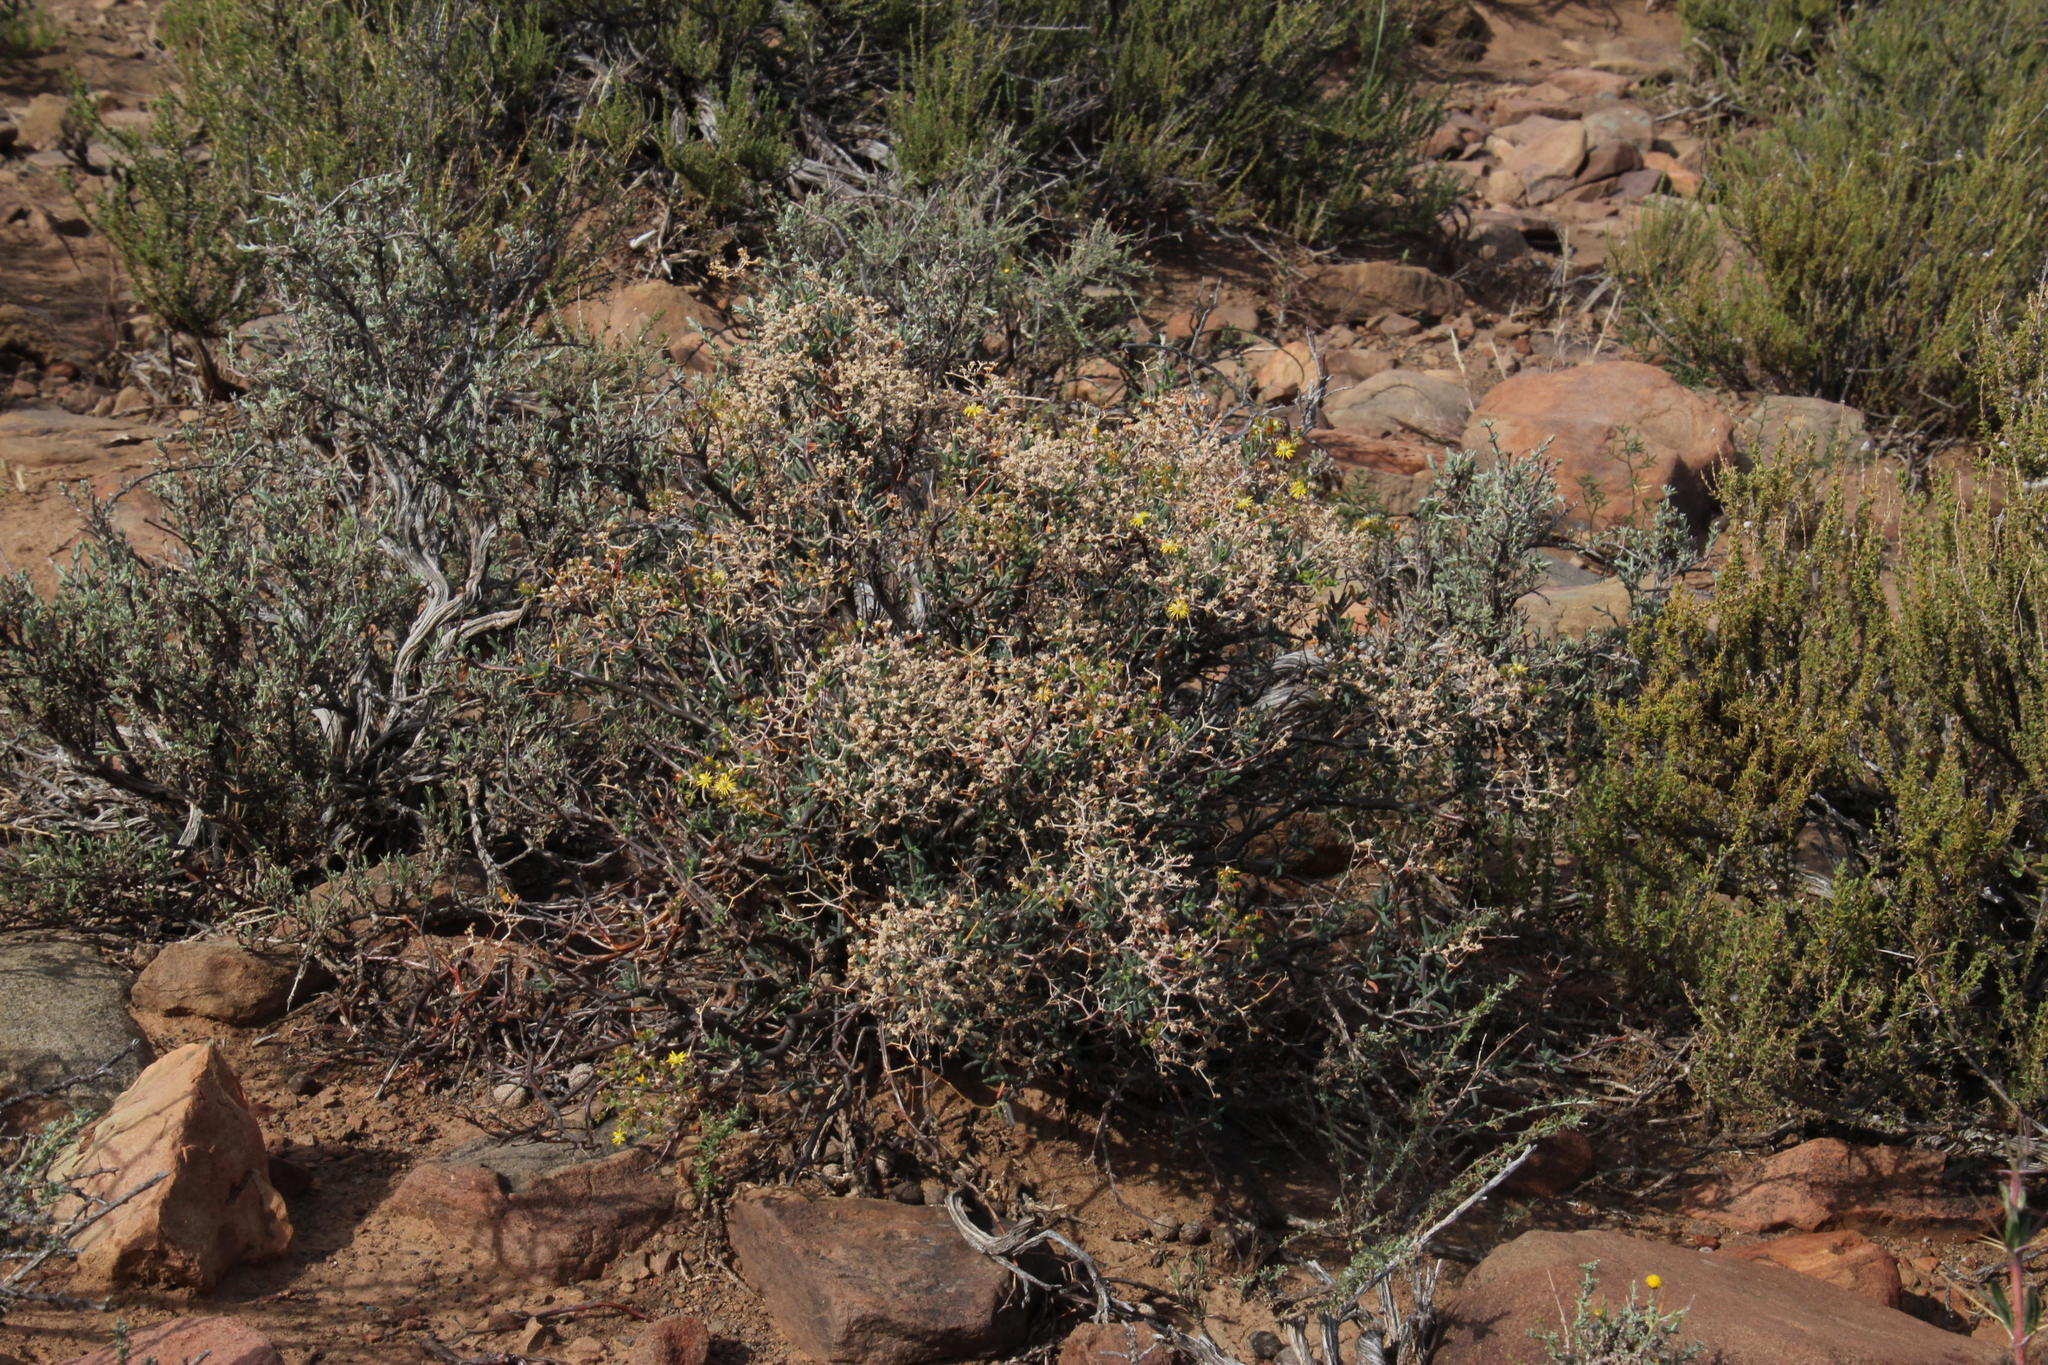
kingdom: Plantae
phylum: Tracheophyta
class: Magnoliopsida
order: Caryophyllales
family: Aizoaceae
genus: Mestoklema
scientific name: Mestoklema copiosum
